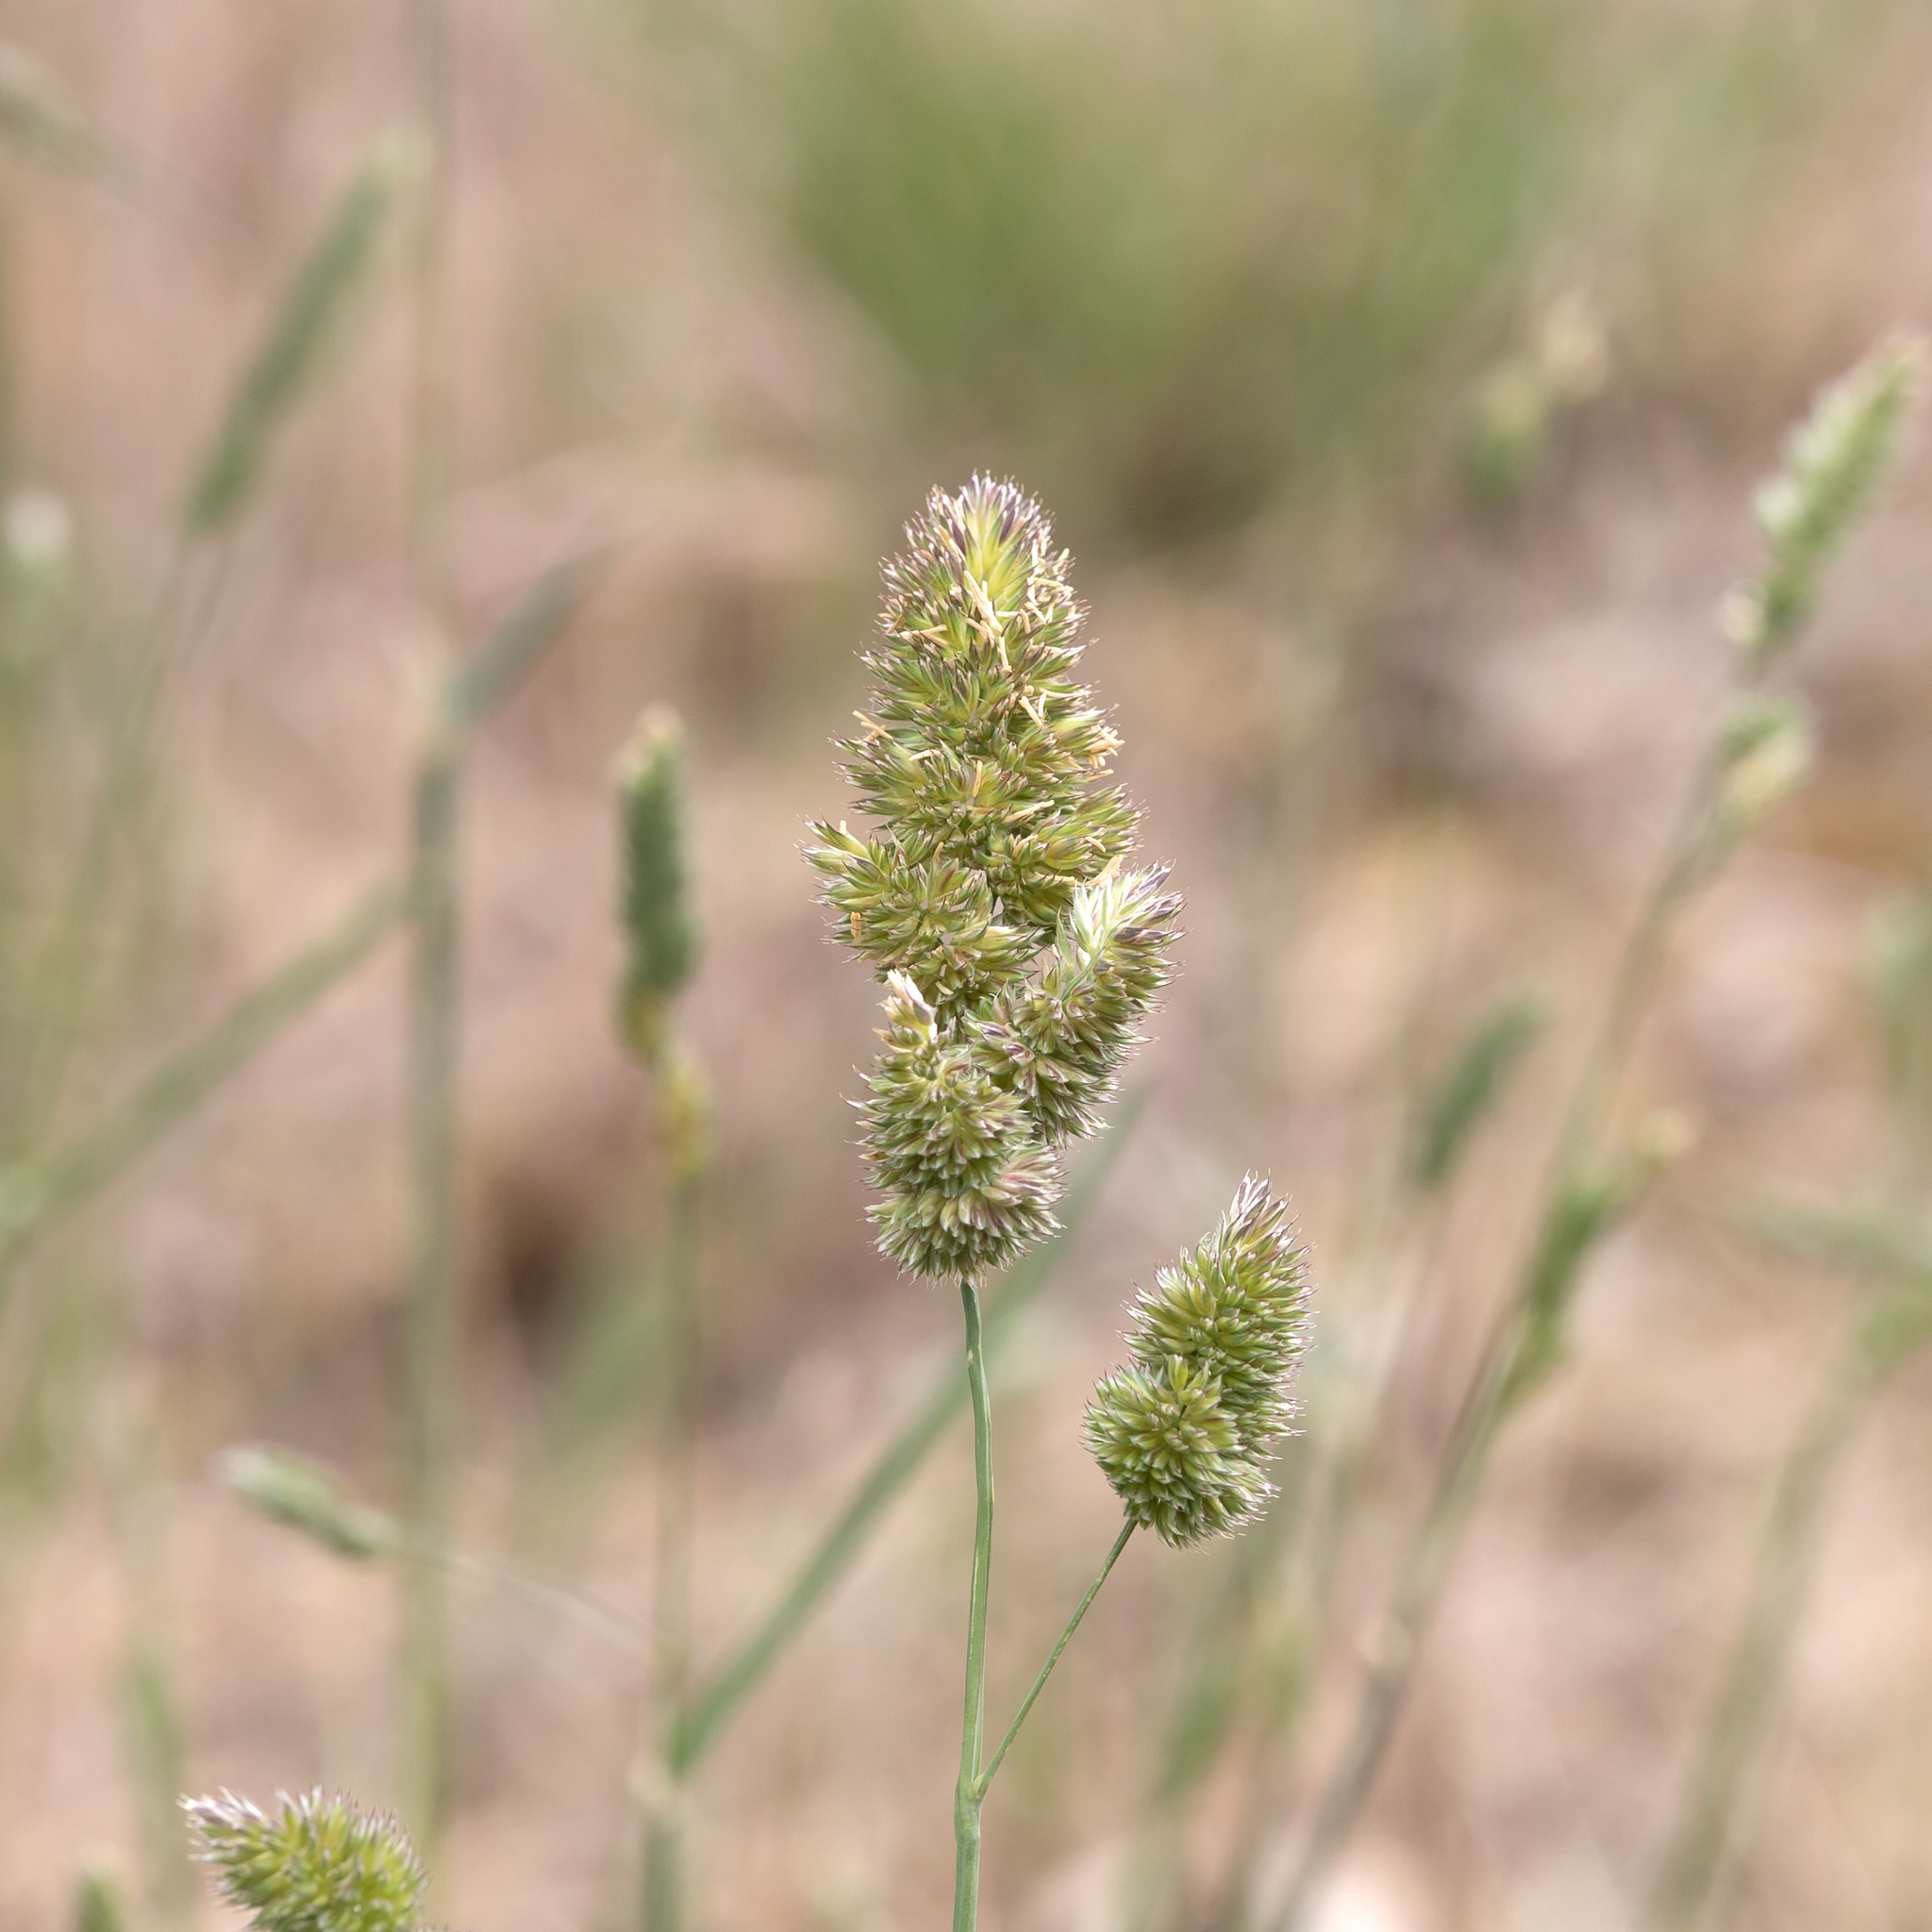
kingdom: Plantae
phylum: Tracheophyta
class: Liliopsida
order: Poales
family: Poaceae
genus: Dactylis
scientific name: Dactylis glomerata
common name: Orchardgrass
